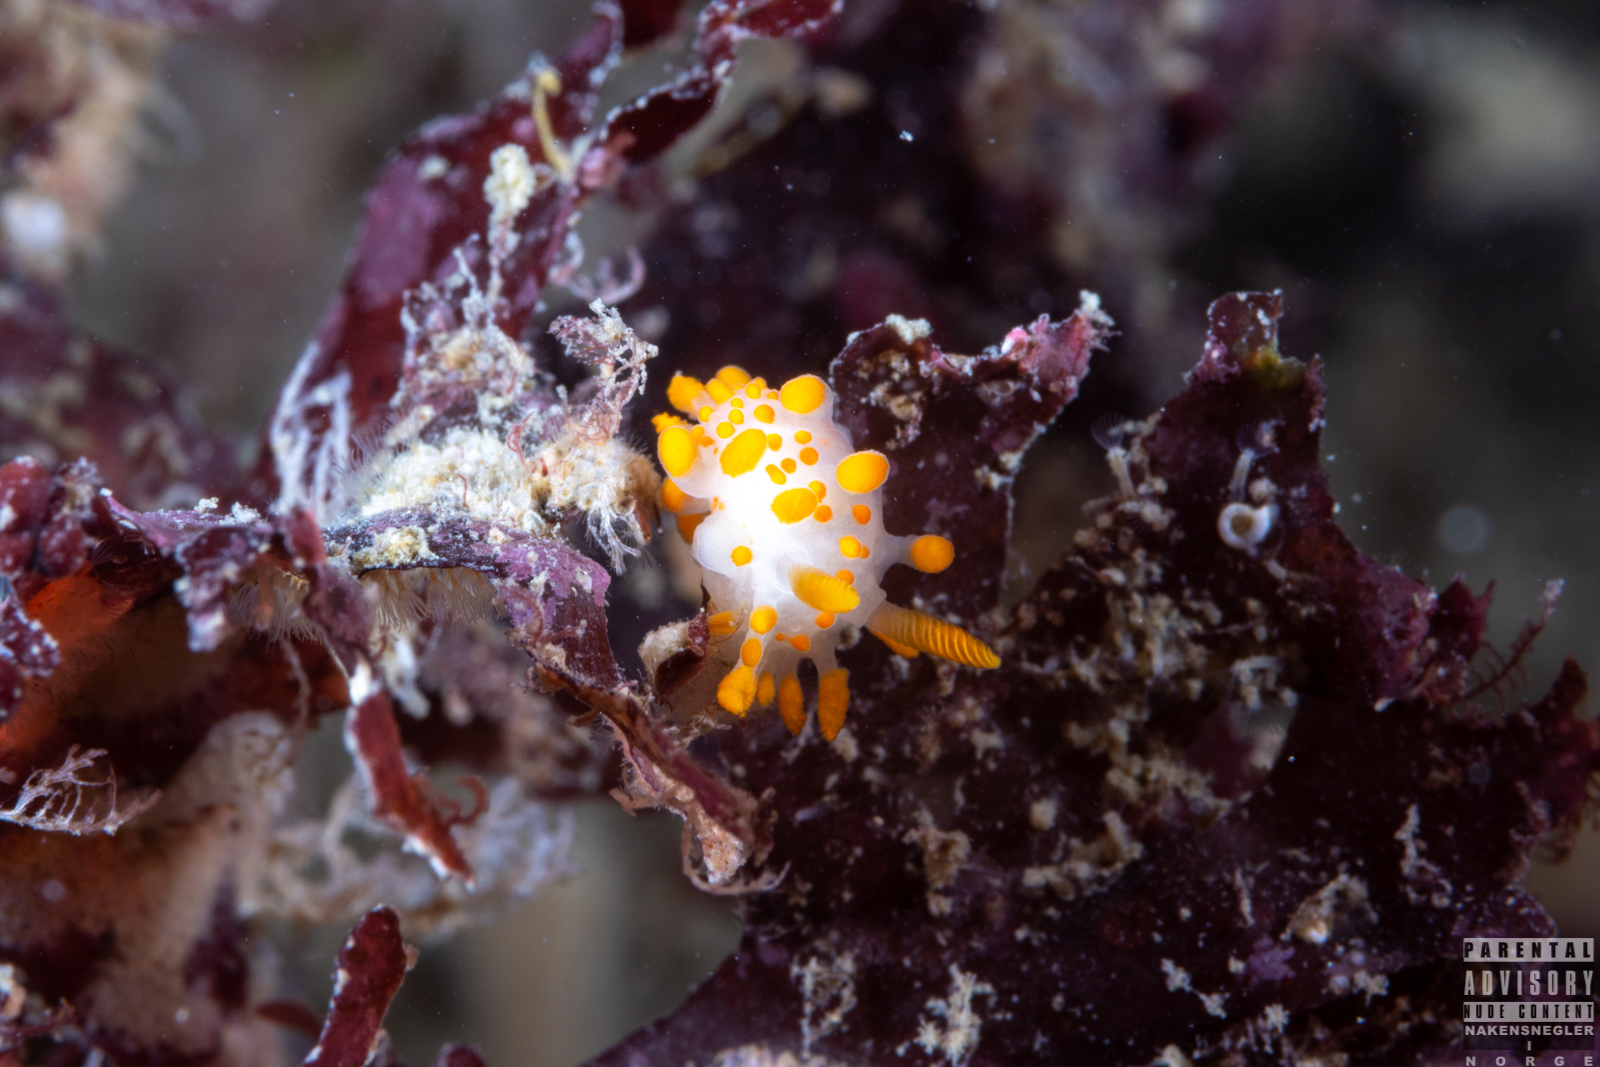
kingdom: Animalia
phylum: Mollusca
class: Gastropoda
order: Nudibranchia
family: Polyceridae
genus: Limacia
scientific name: Limacia clavigera
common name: Orange-clubbed sea slug
